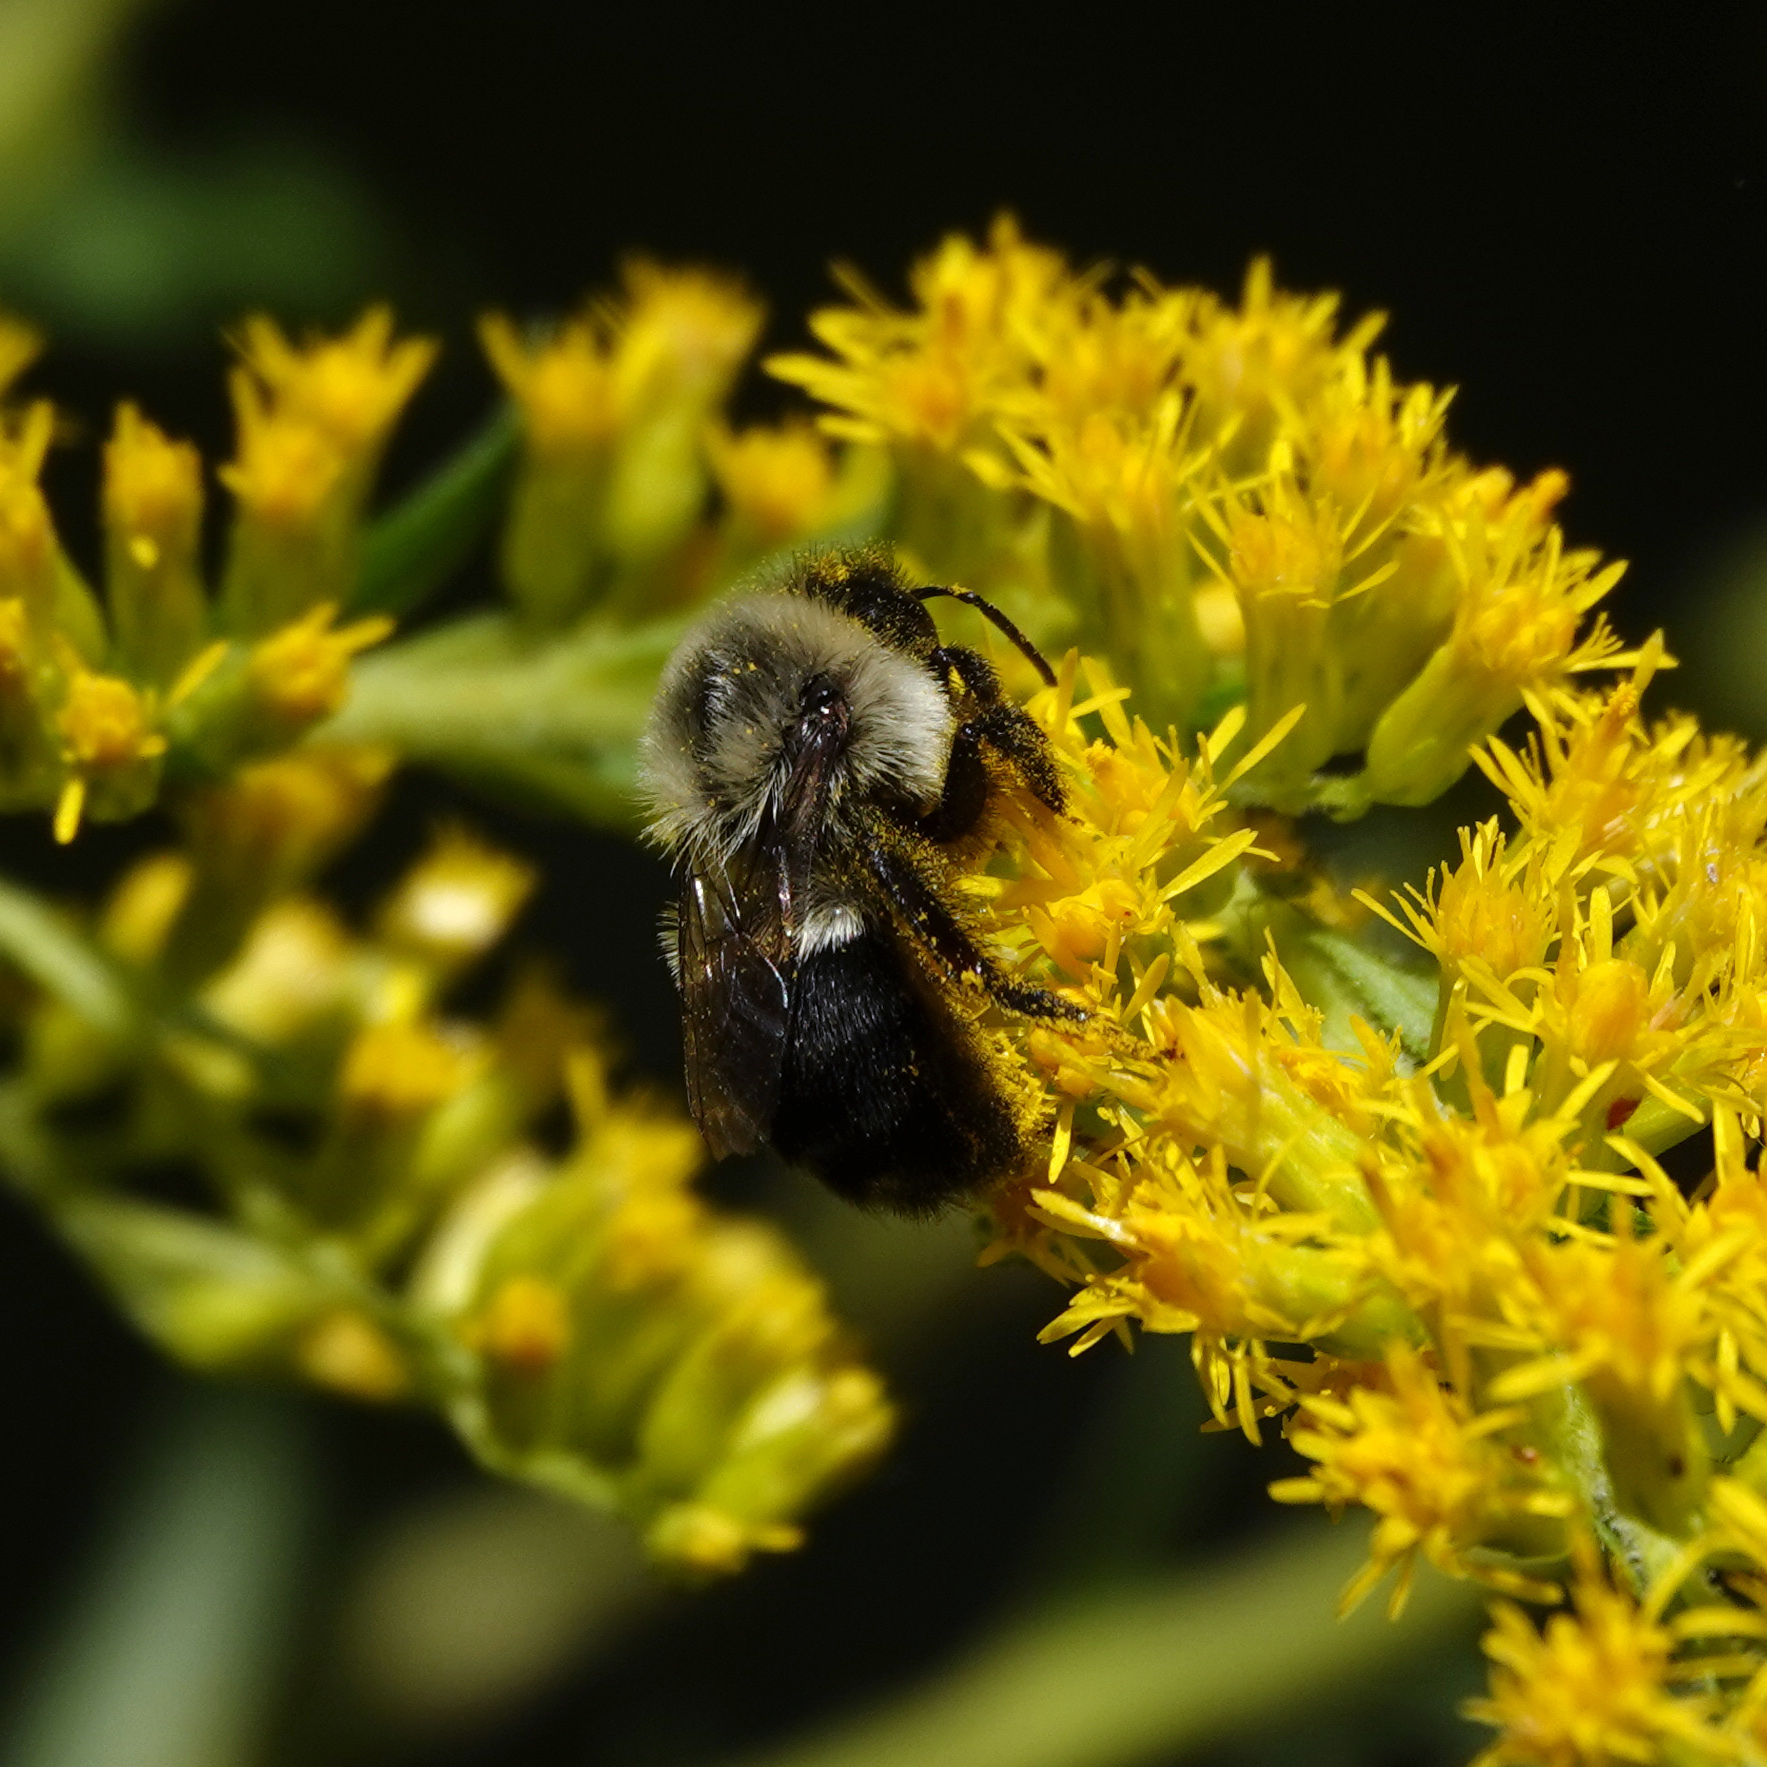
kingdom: Animalia
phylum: Arthropoda
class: Insecta
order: Hymenoptera
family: Apidae
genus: Bombus
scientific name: Bombus impatiens
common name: Common eastern bumble bee
